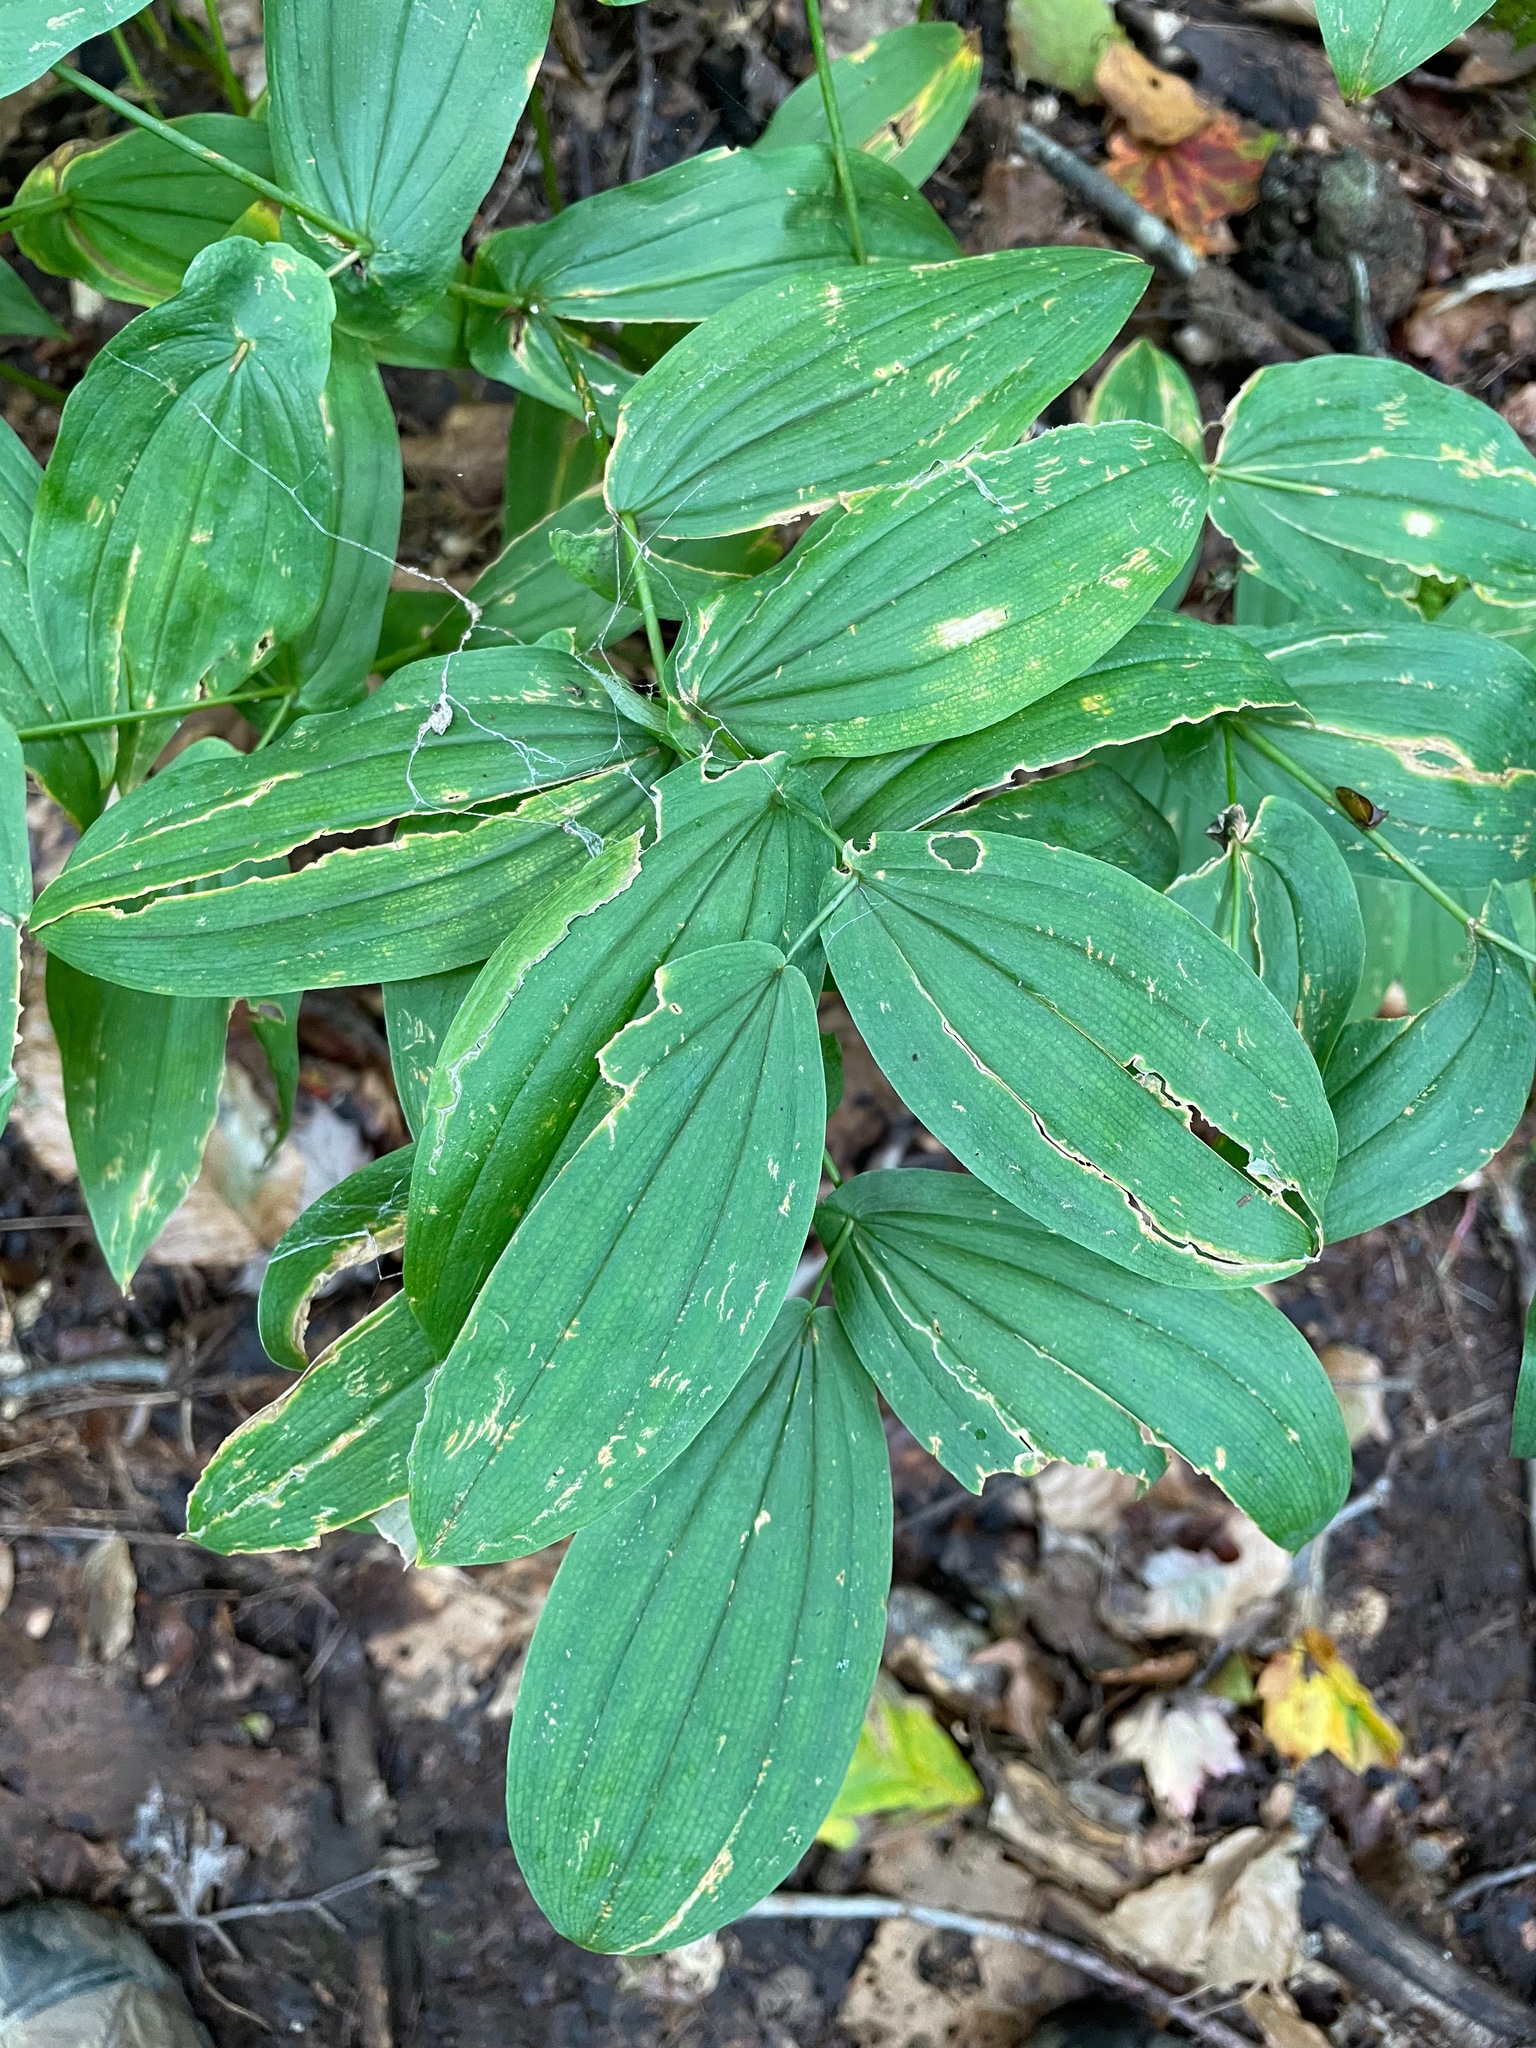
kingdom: Plantae
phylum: Tracheophyta
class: Liliopsida
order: Liliales
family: Colchicaceae
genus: Uvularia
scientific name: Uvularia grandiflora
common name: Bellwort
